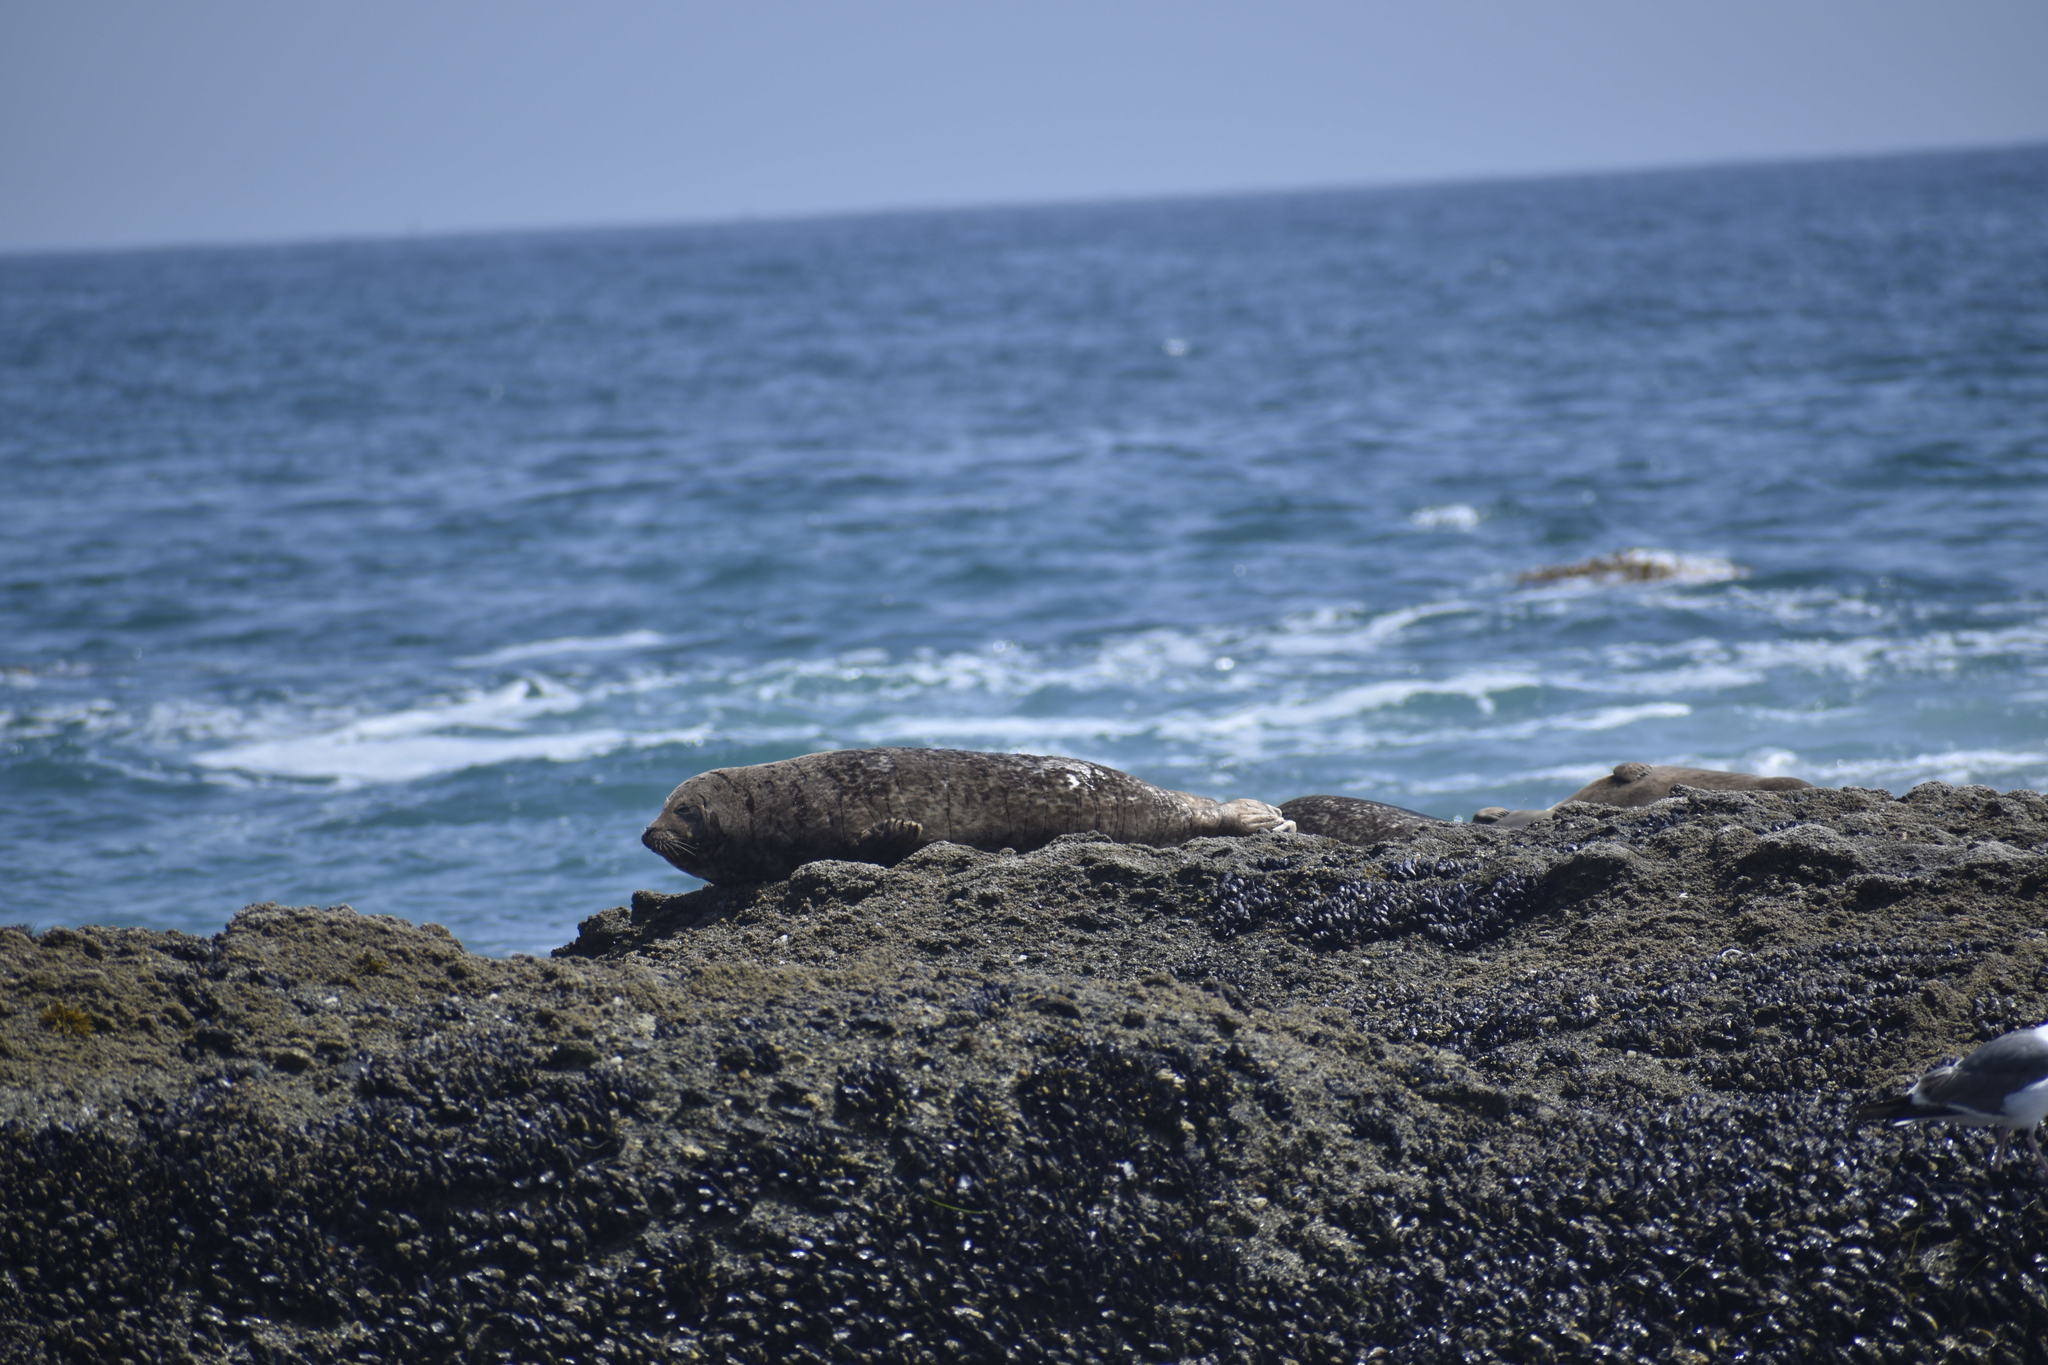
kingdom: Animalia
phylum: Chordata
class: Mammalia
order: Carnivora
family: Phocidae
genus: Phoca
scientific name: Phoca vitulina
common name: Harbor seal
